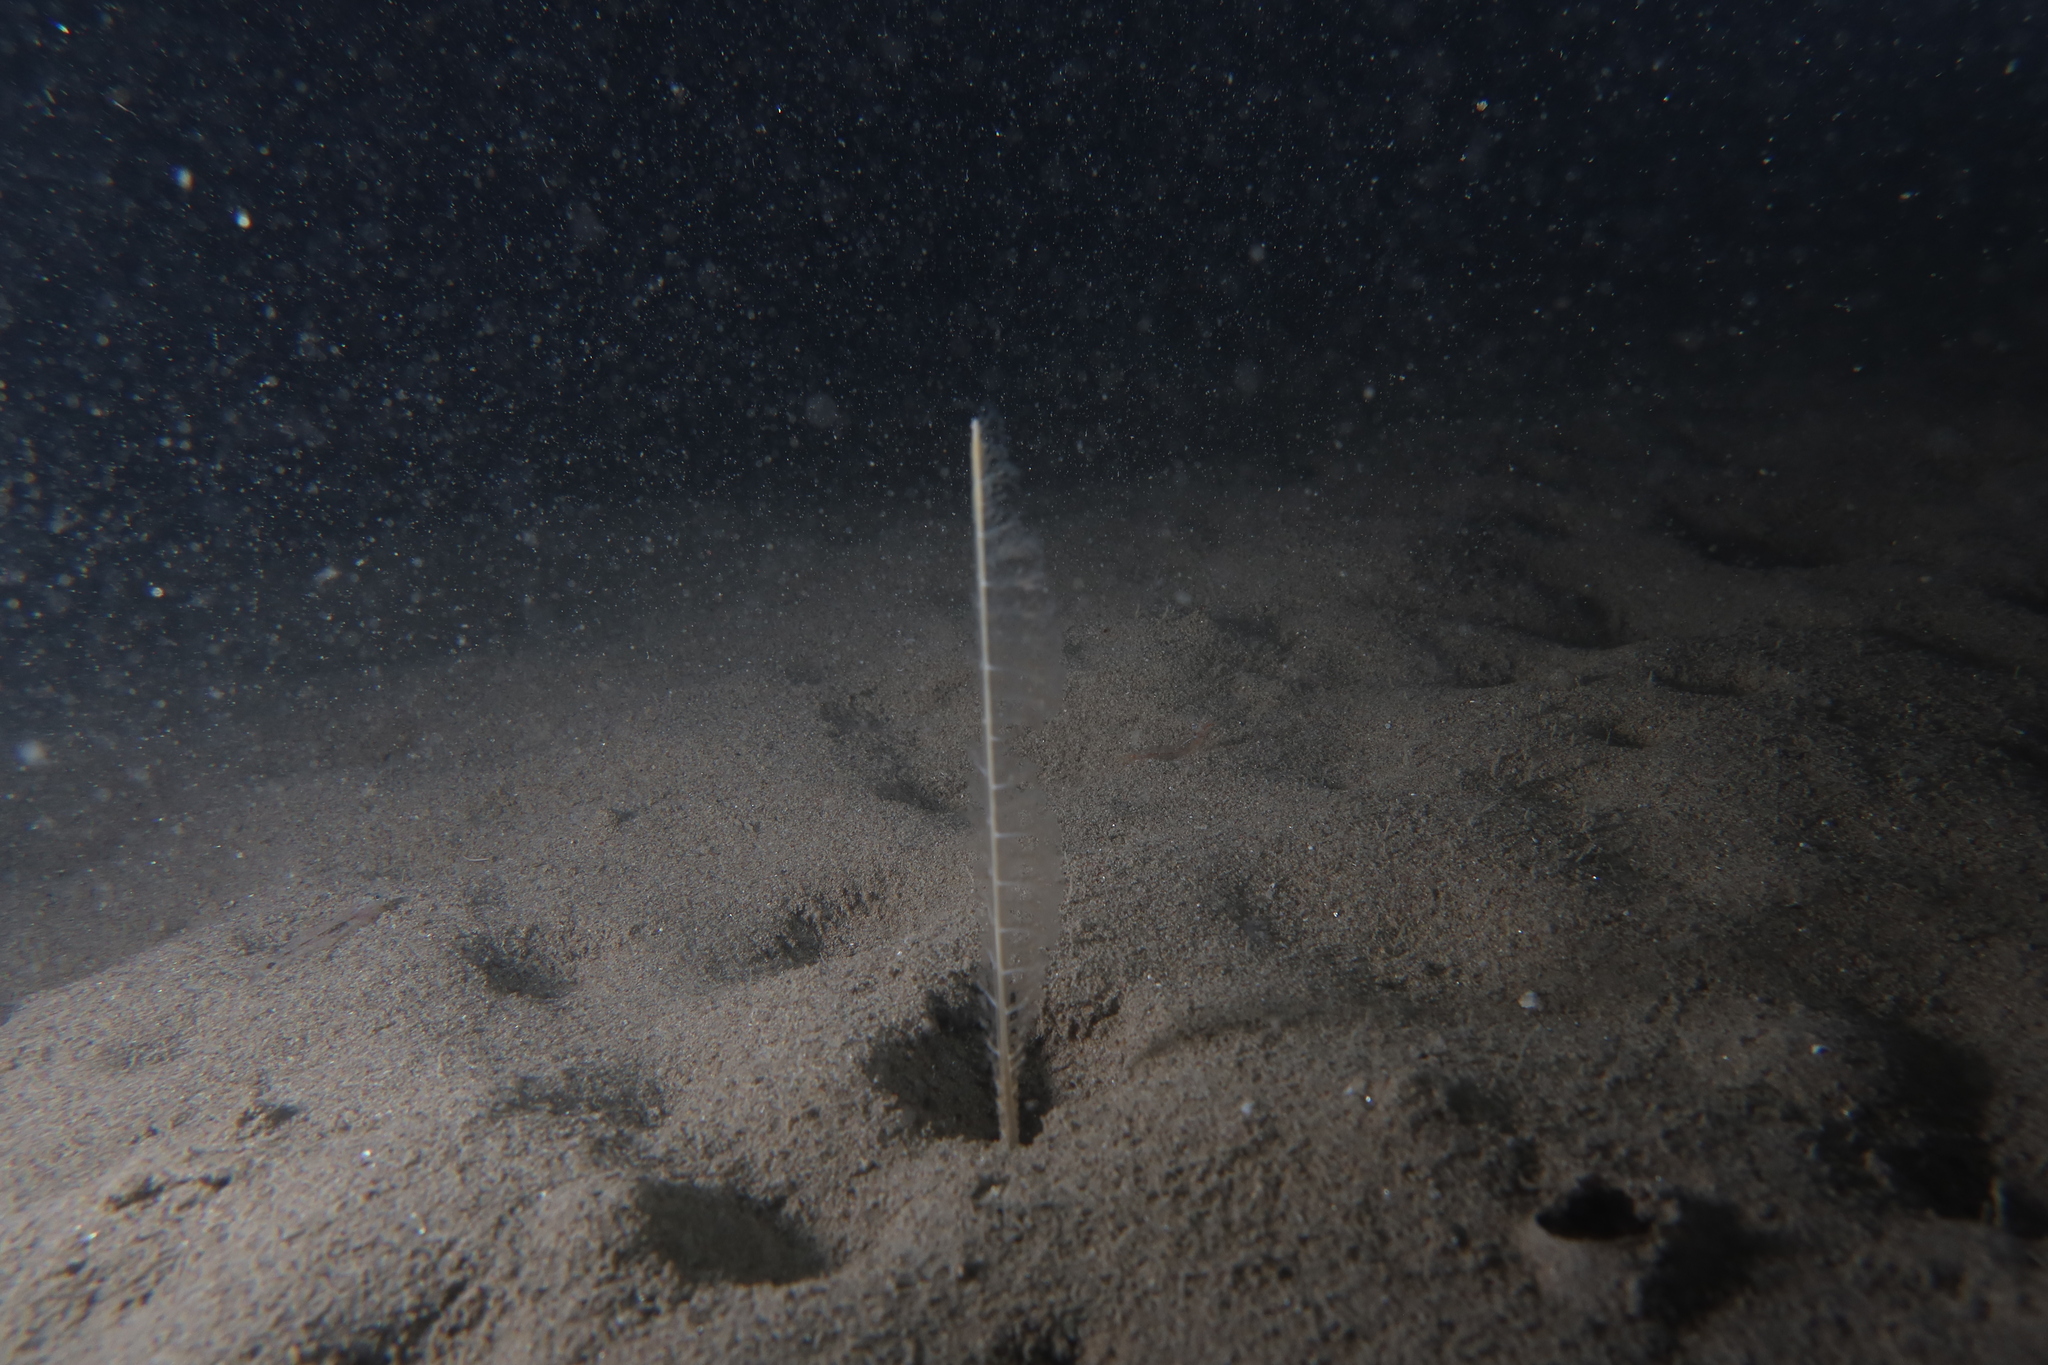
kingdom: Animalia
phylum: Cnidaria
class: Anthozoa
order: Scleralcyonacea
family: Virgulariidae
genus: Virgularia
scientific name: Virgularia mirabilis
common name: Slender sea pen
